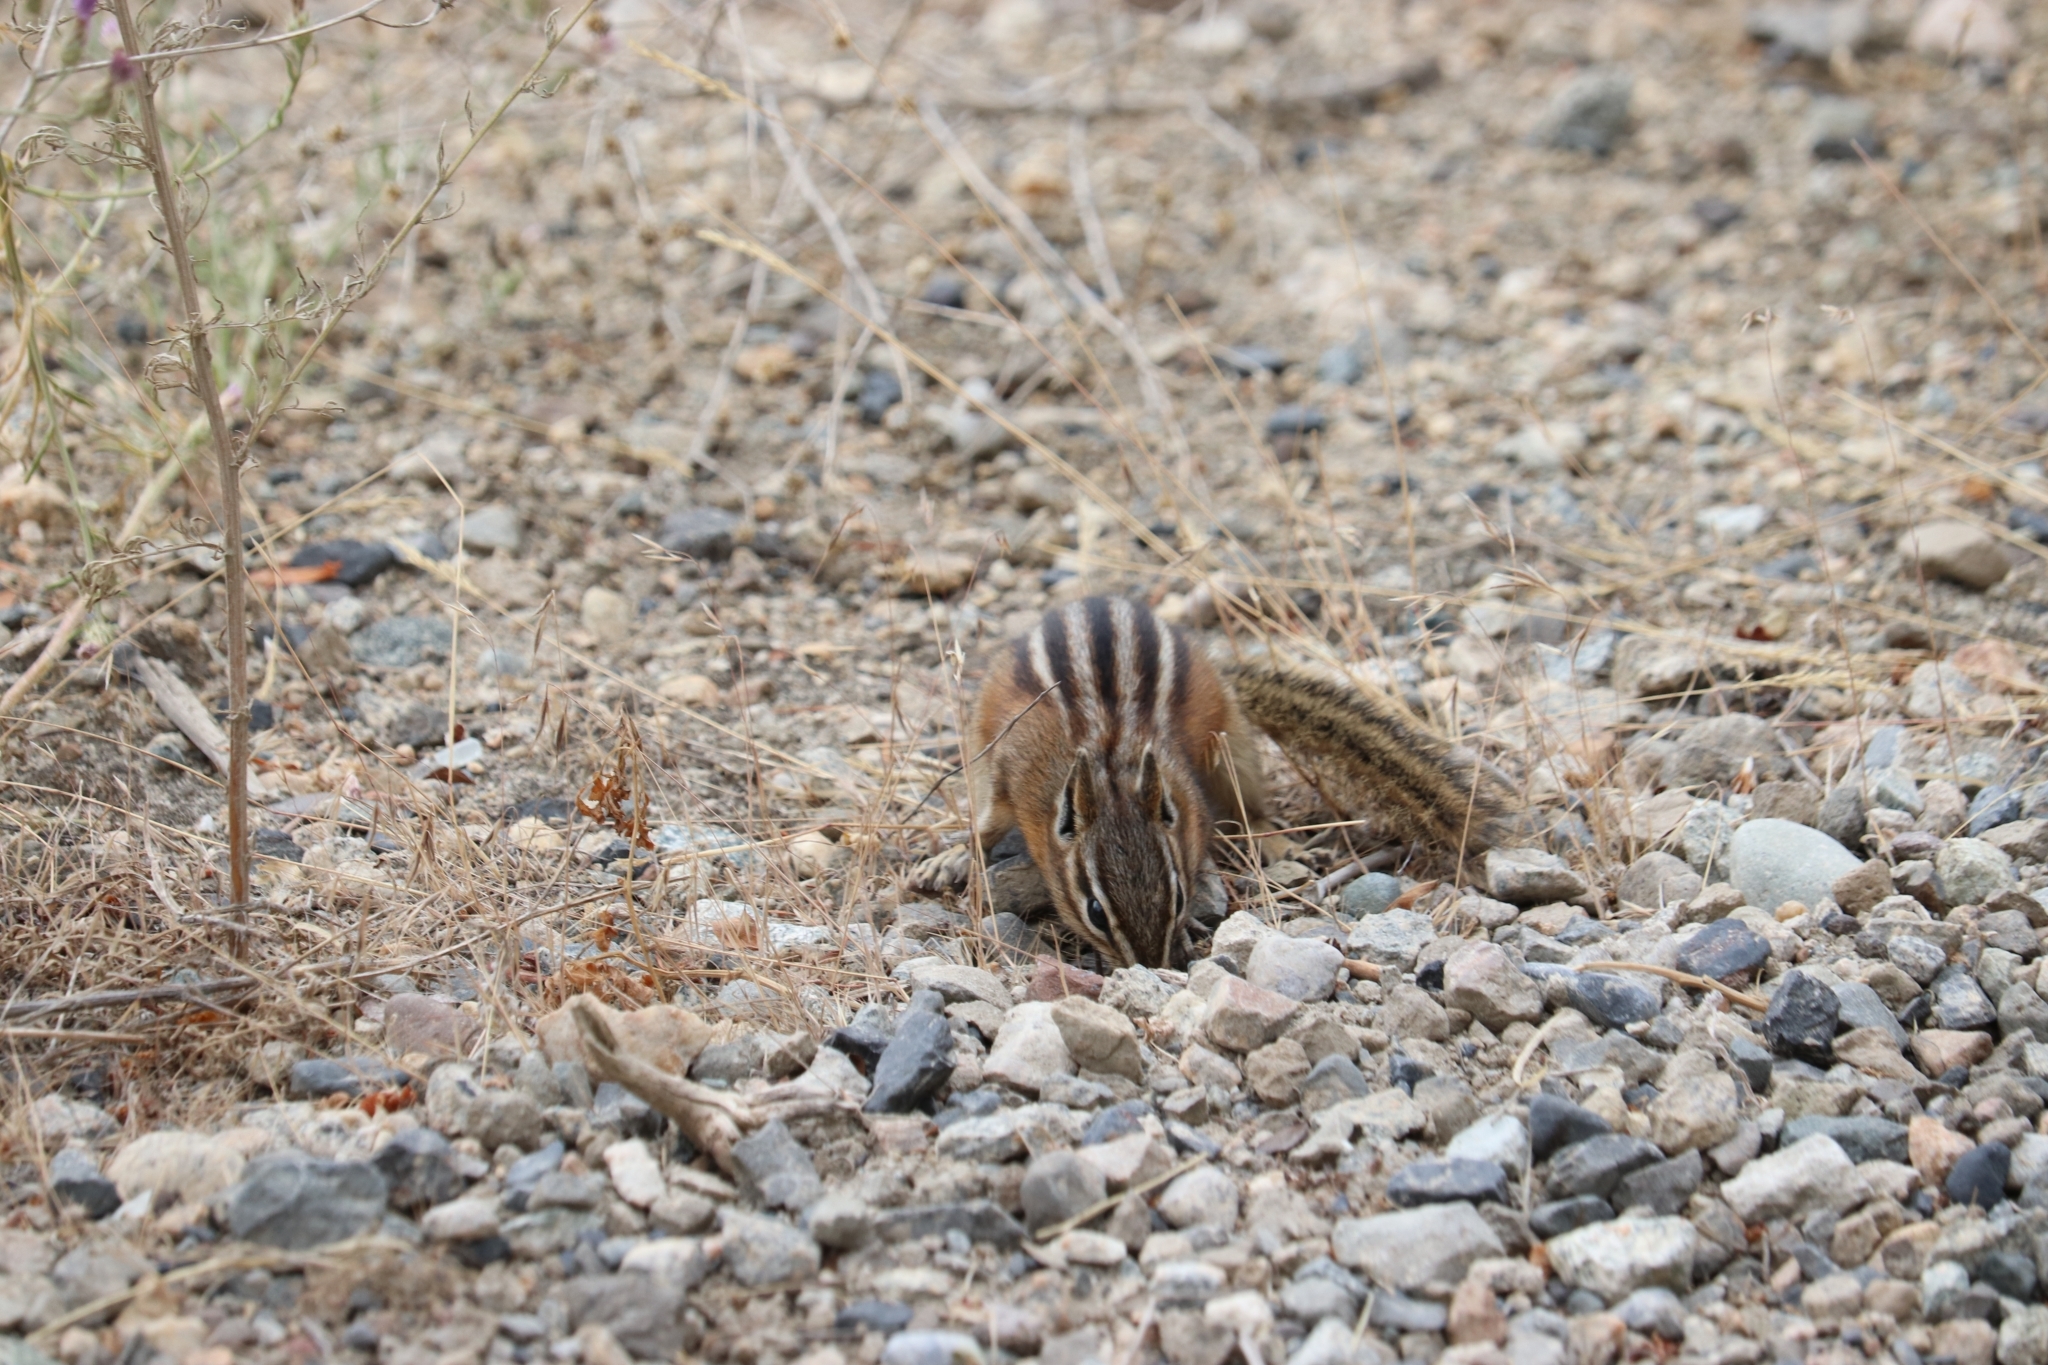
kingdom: Animalia
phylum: Chordata
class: Mammalia
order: Rodentia
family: Sciuridae
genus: Tamias
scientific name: Tamias amoenus
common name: Yellow-pine chipmunk
